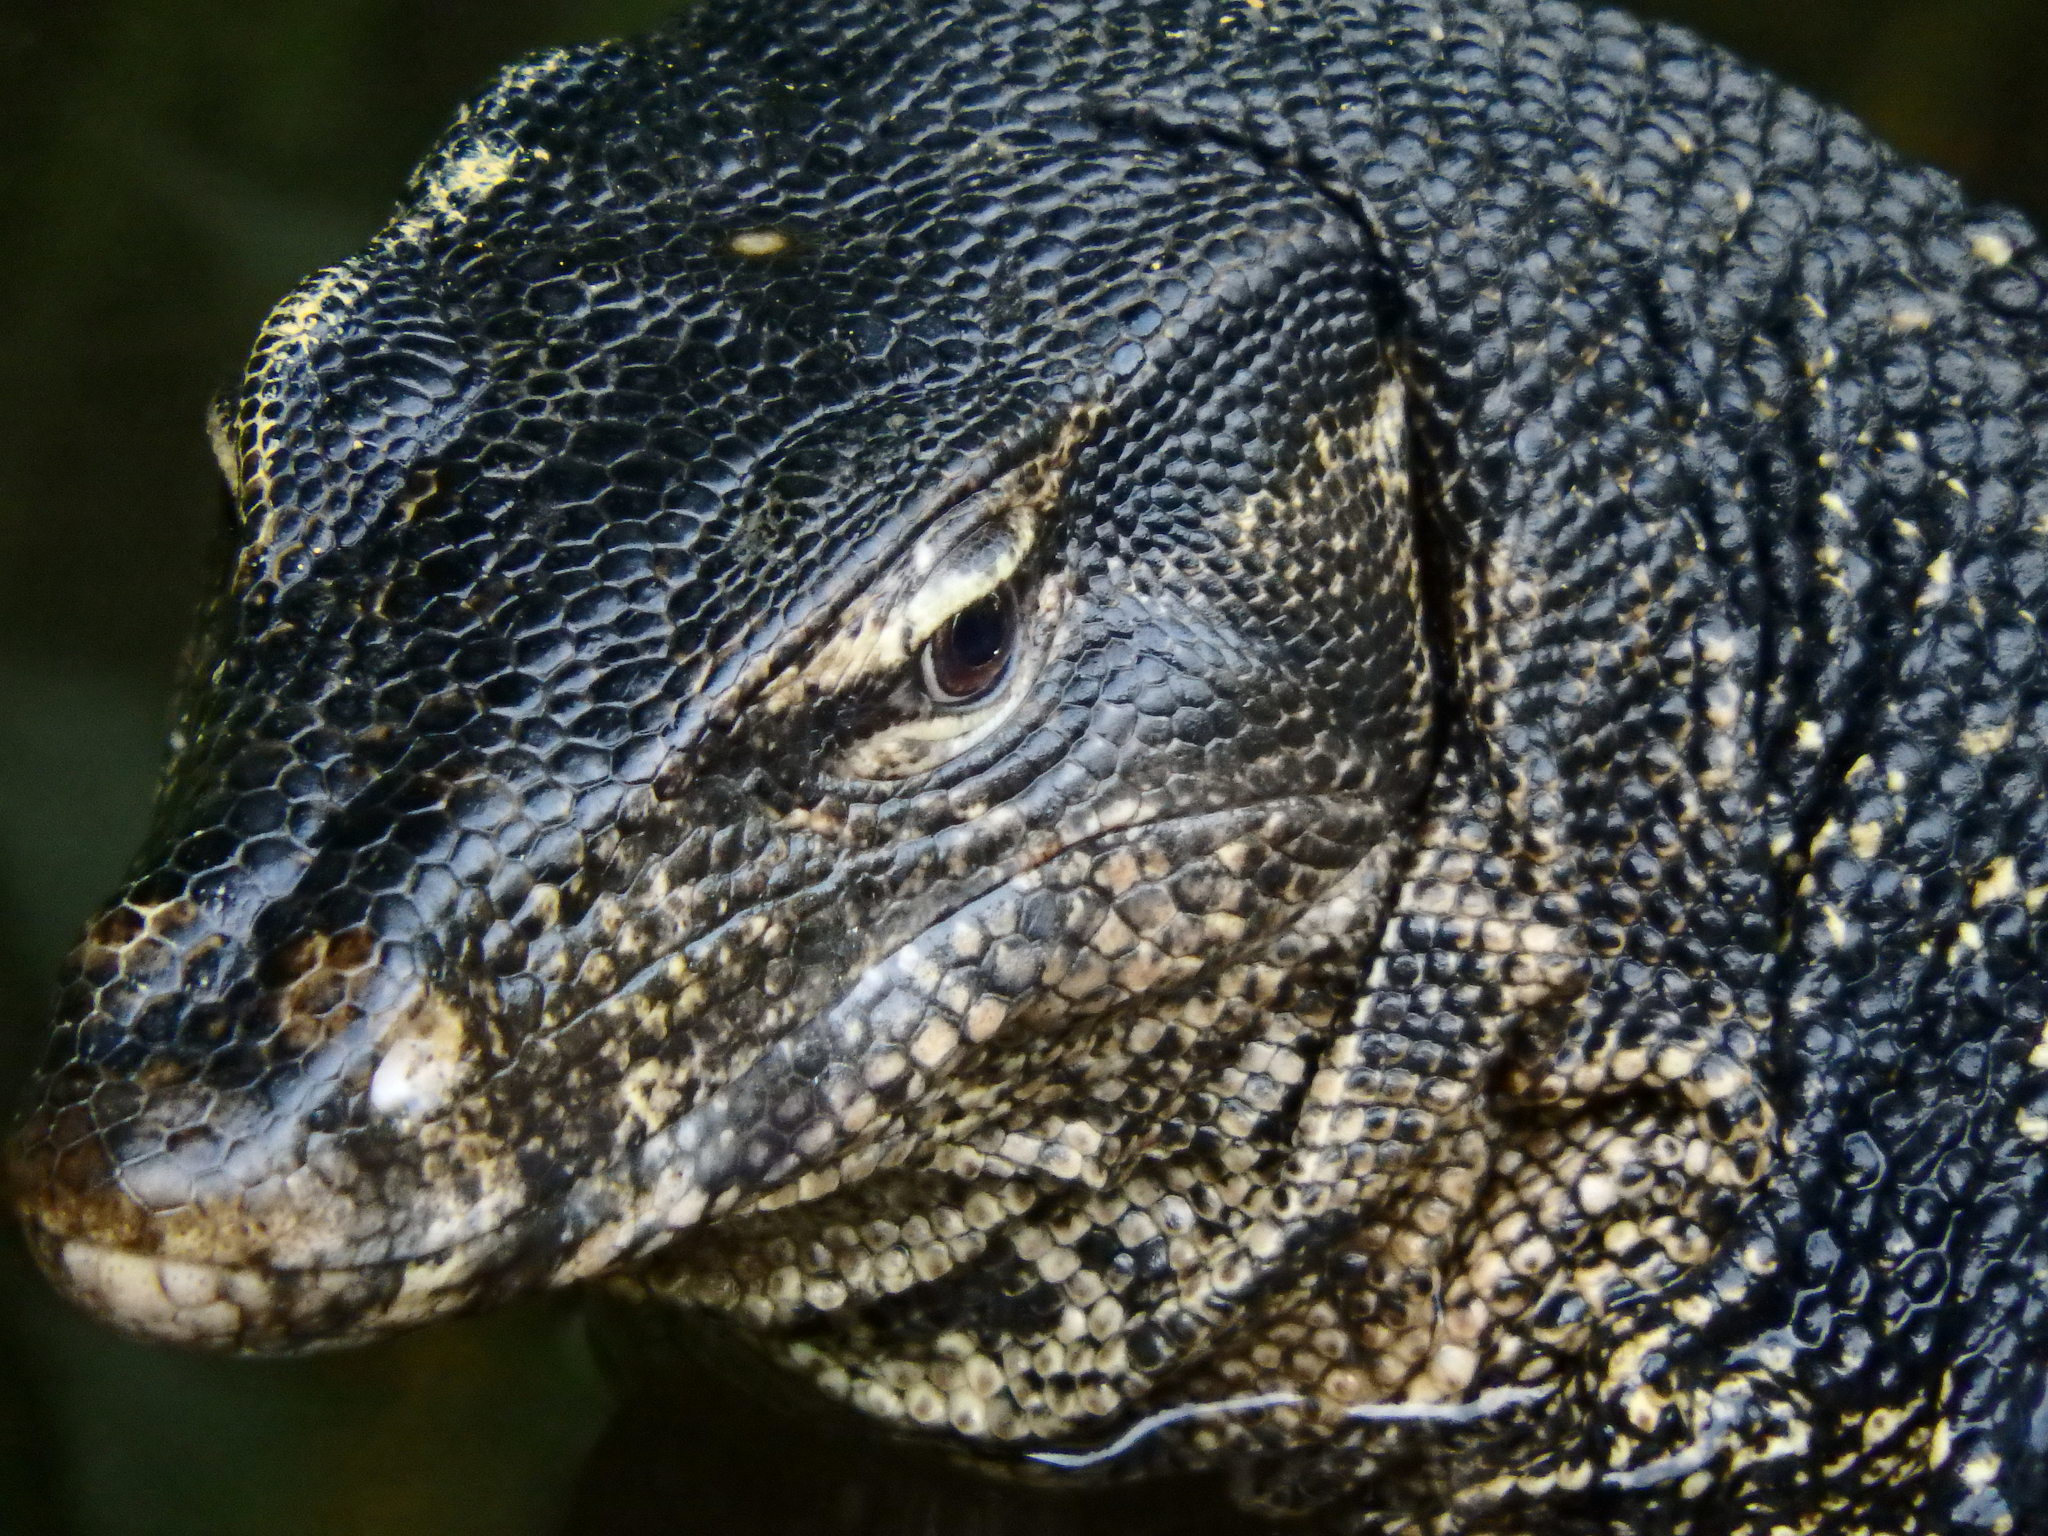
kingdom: Animalia
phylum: Chordata
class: Squamata
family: Varanidae
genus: Varanus
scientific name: Varanus salvator
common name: Common water monitor
